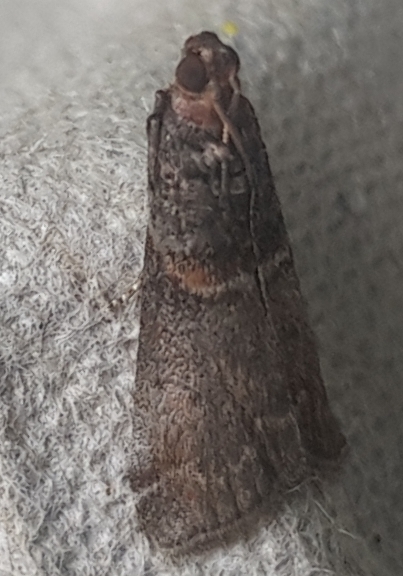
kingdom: Animalia
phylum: Arthropoda
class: Insecta
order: Lepidoptera
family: Pyralidae
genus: Acrobasis
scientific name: Acrobasis advenella
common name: Grey knot-horn
